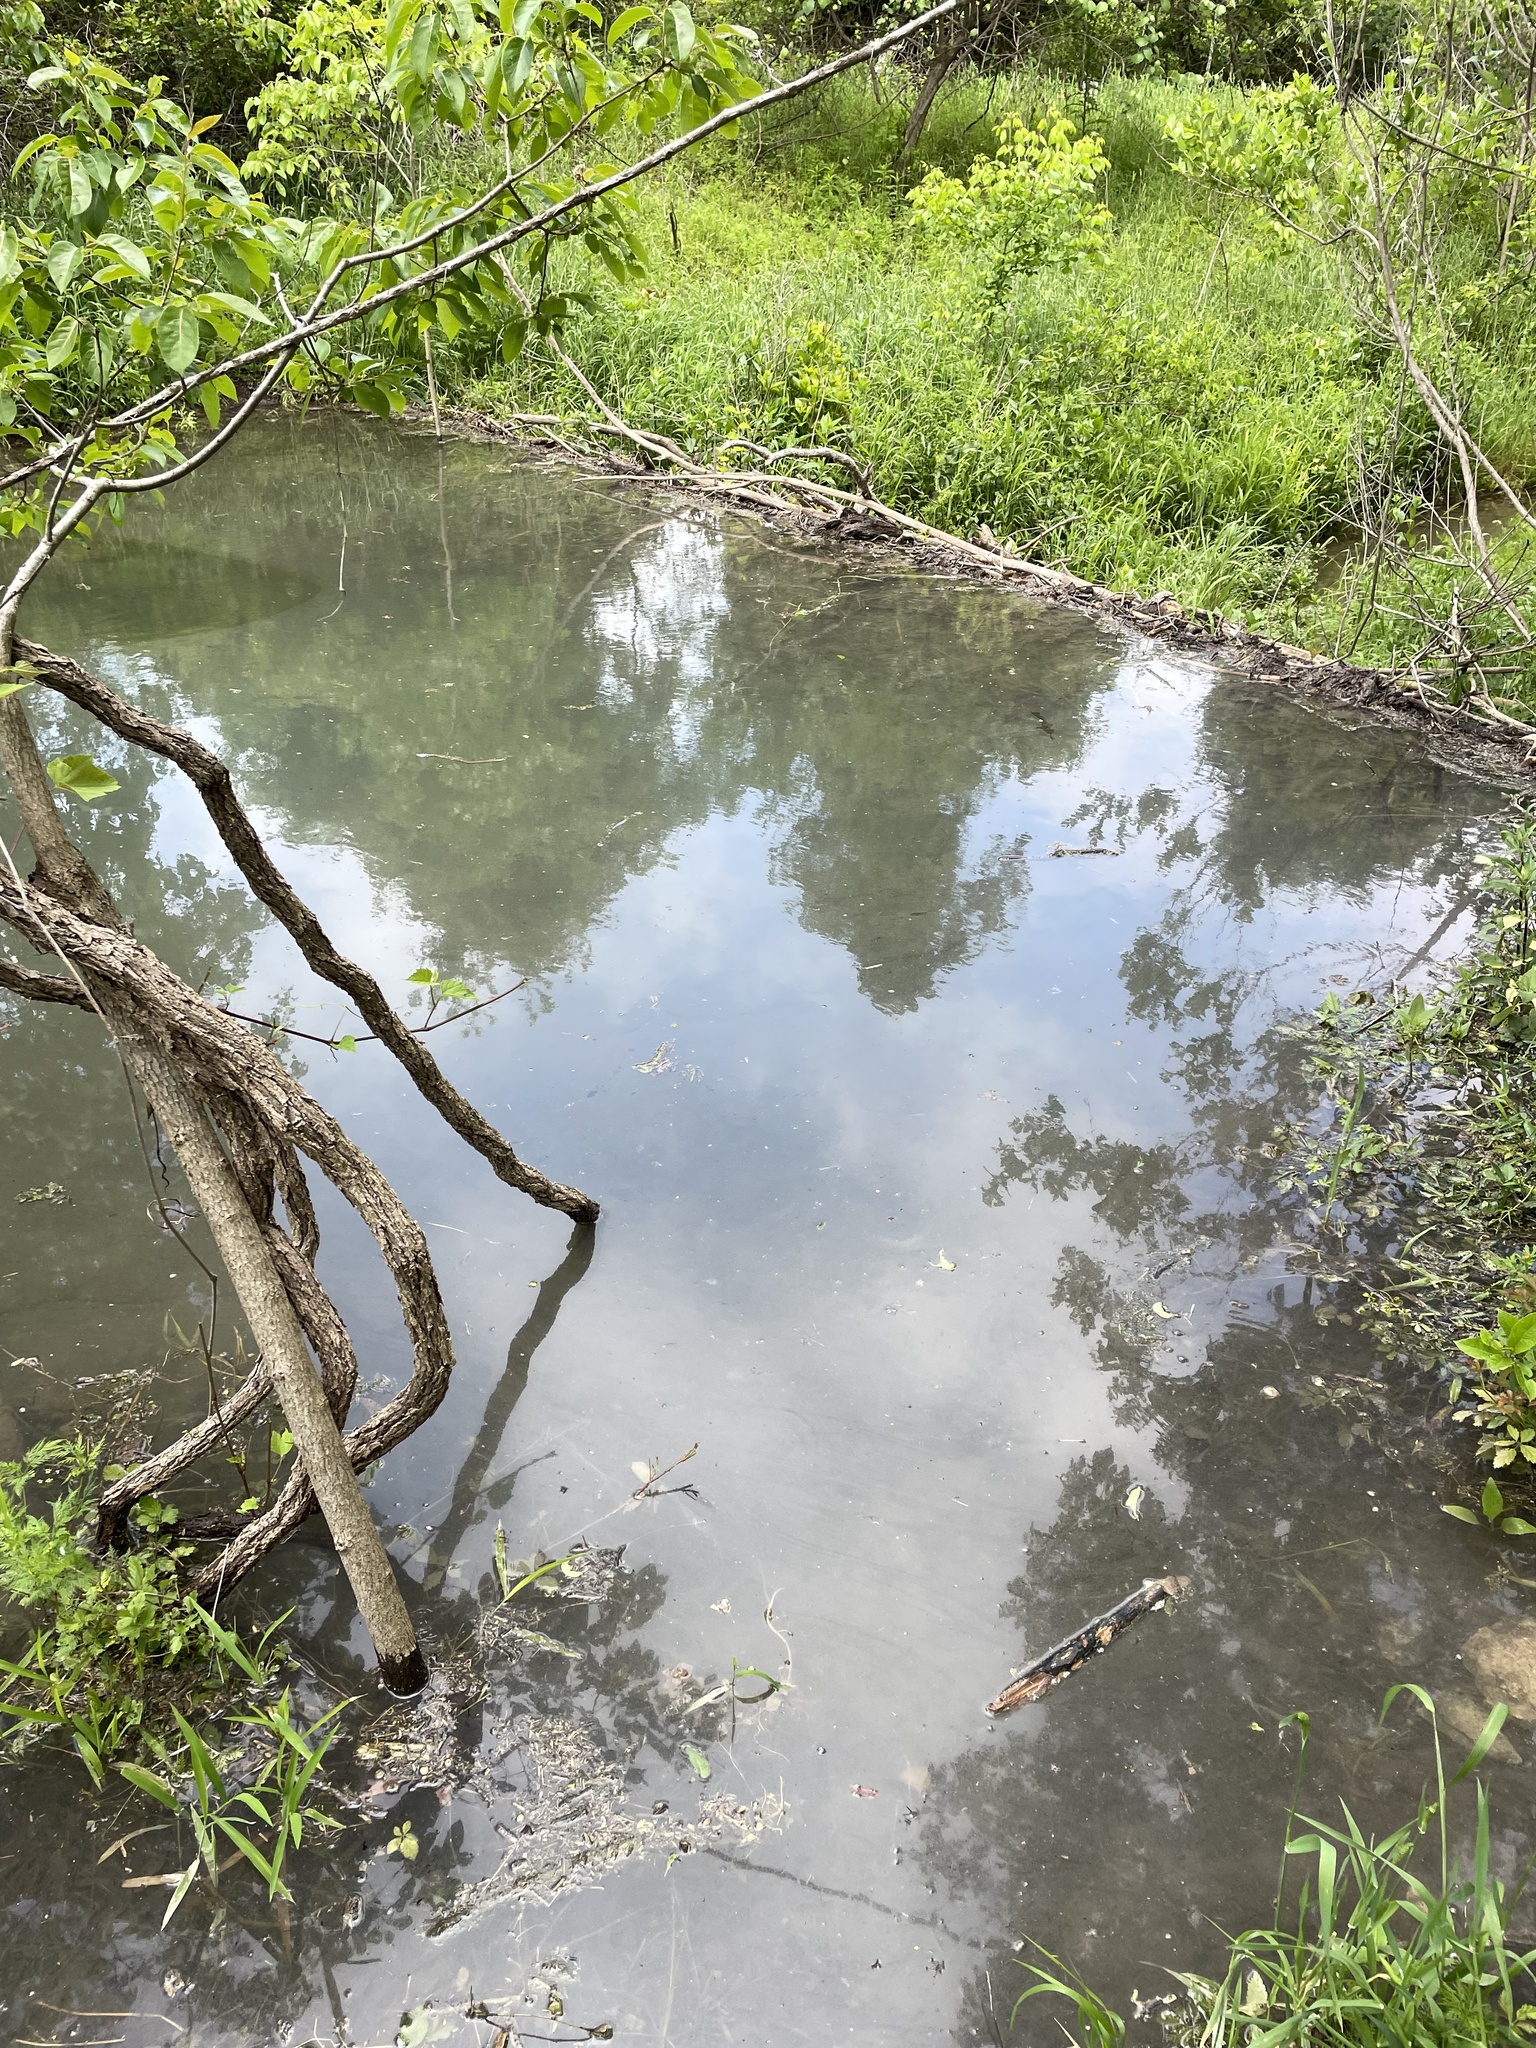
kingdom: Animalia
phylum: Chordata
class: Mammalia
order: Rodentia
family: Castoridae
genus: Castor
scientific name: Castor canadensis
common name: American beaver
